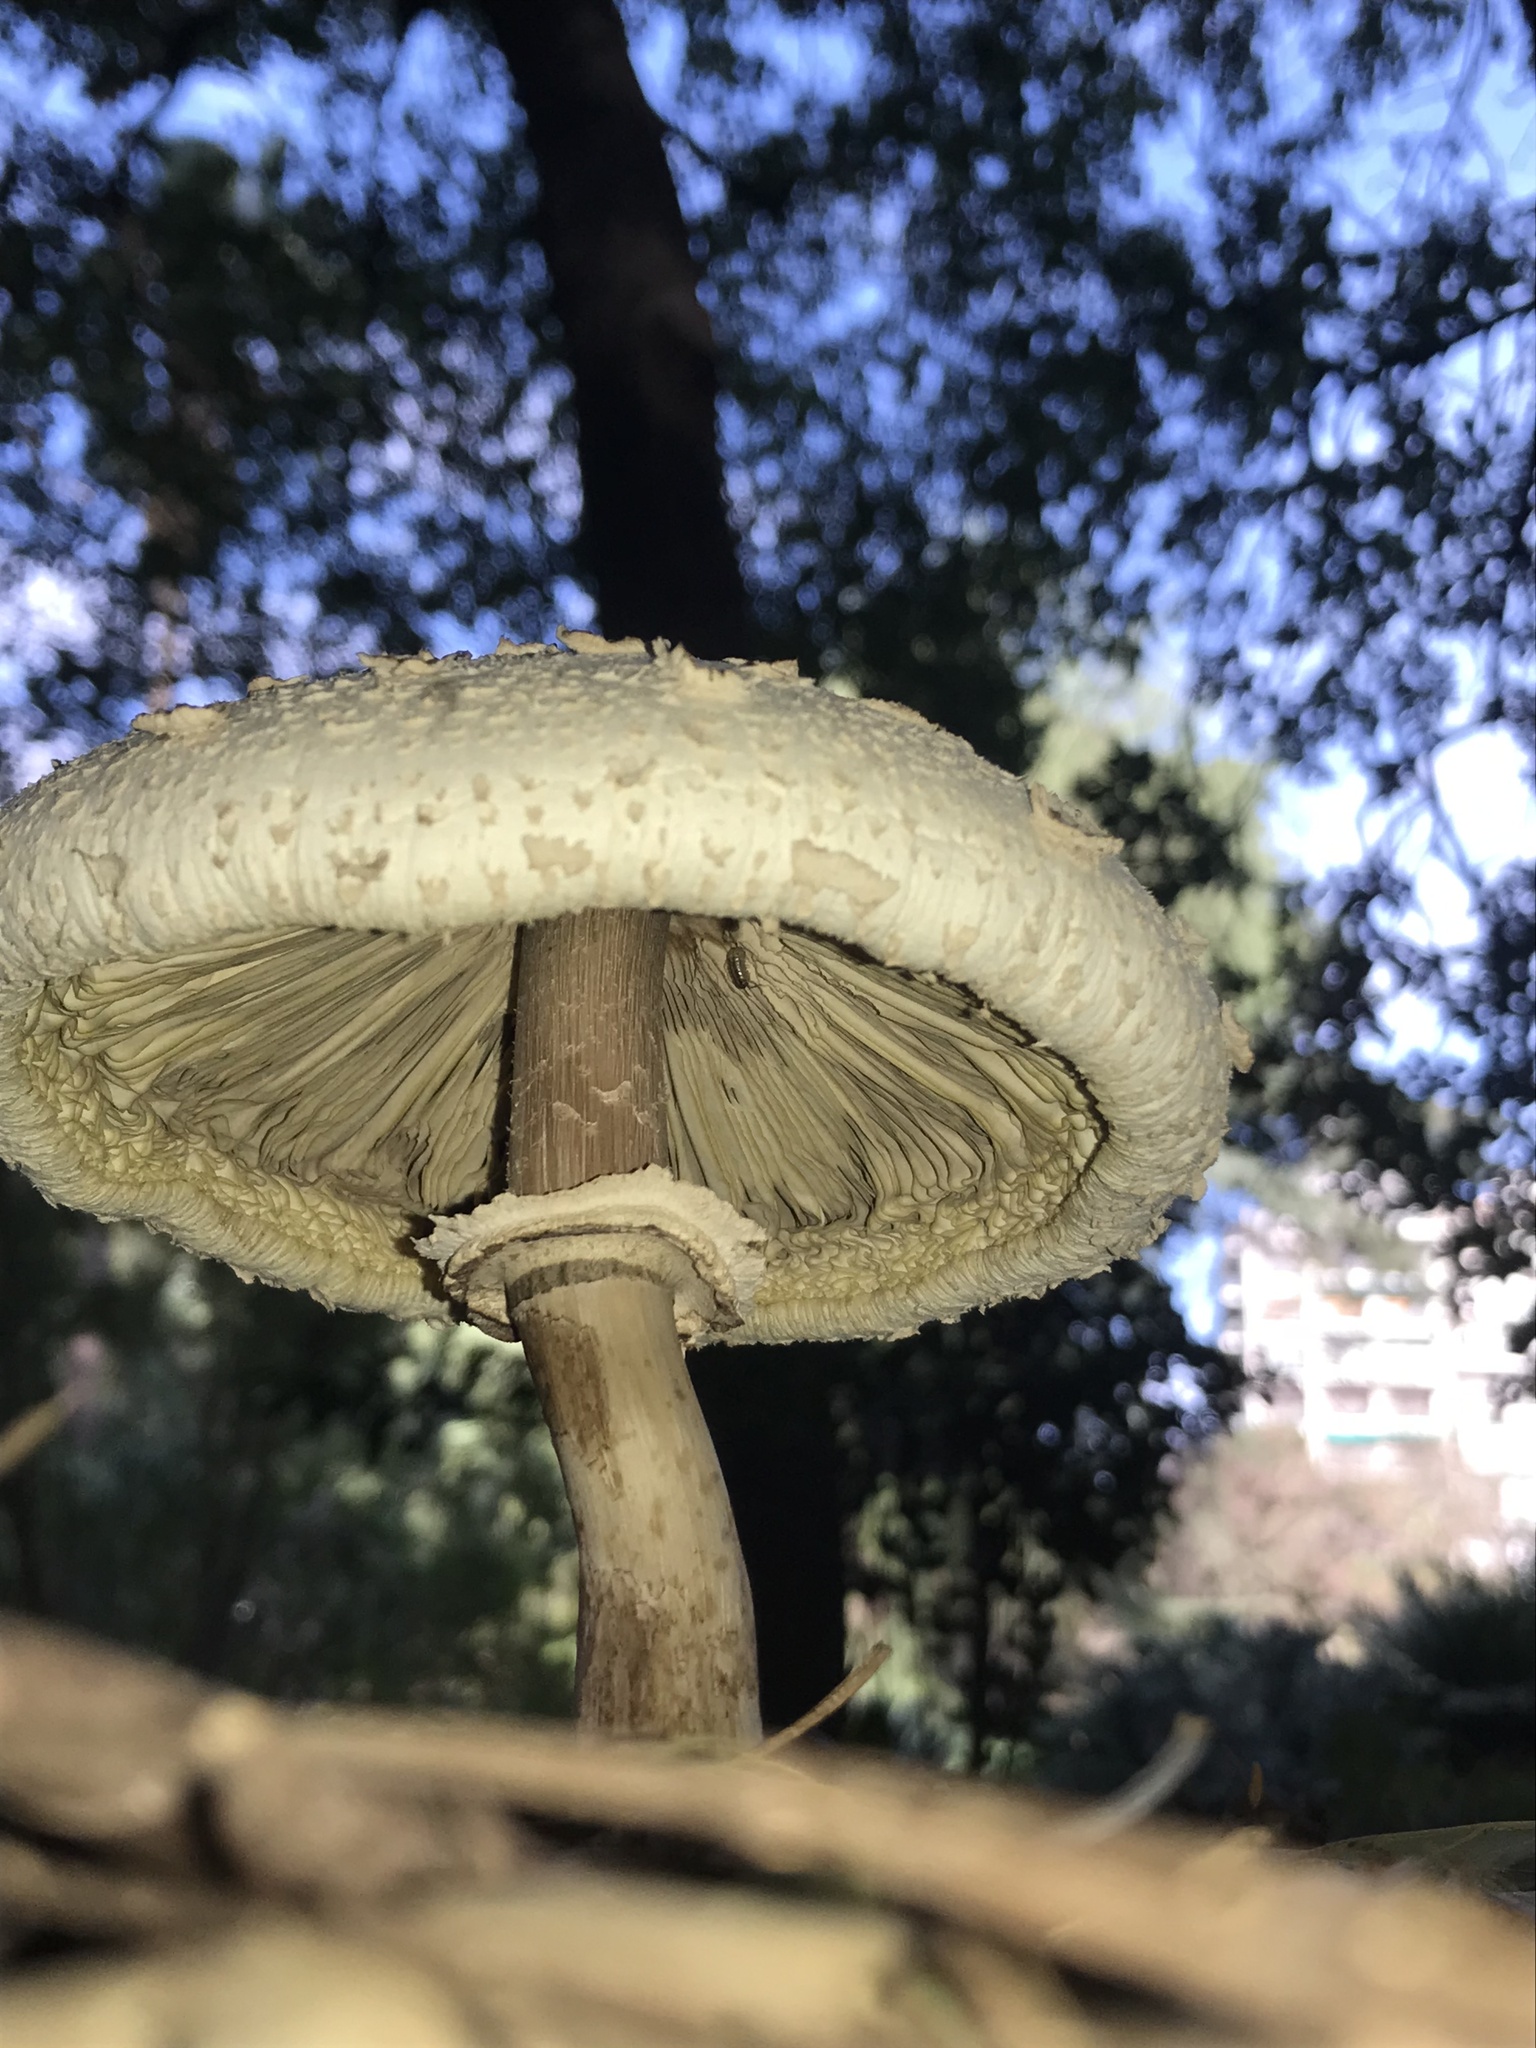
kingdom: Fungi
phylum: Basidiomycota
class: Agaricomycetes
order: Agaricales
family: Agaricaceae
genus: Chlorophyllum
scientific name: Chlorophyllum molybdites
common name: False parasol
